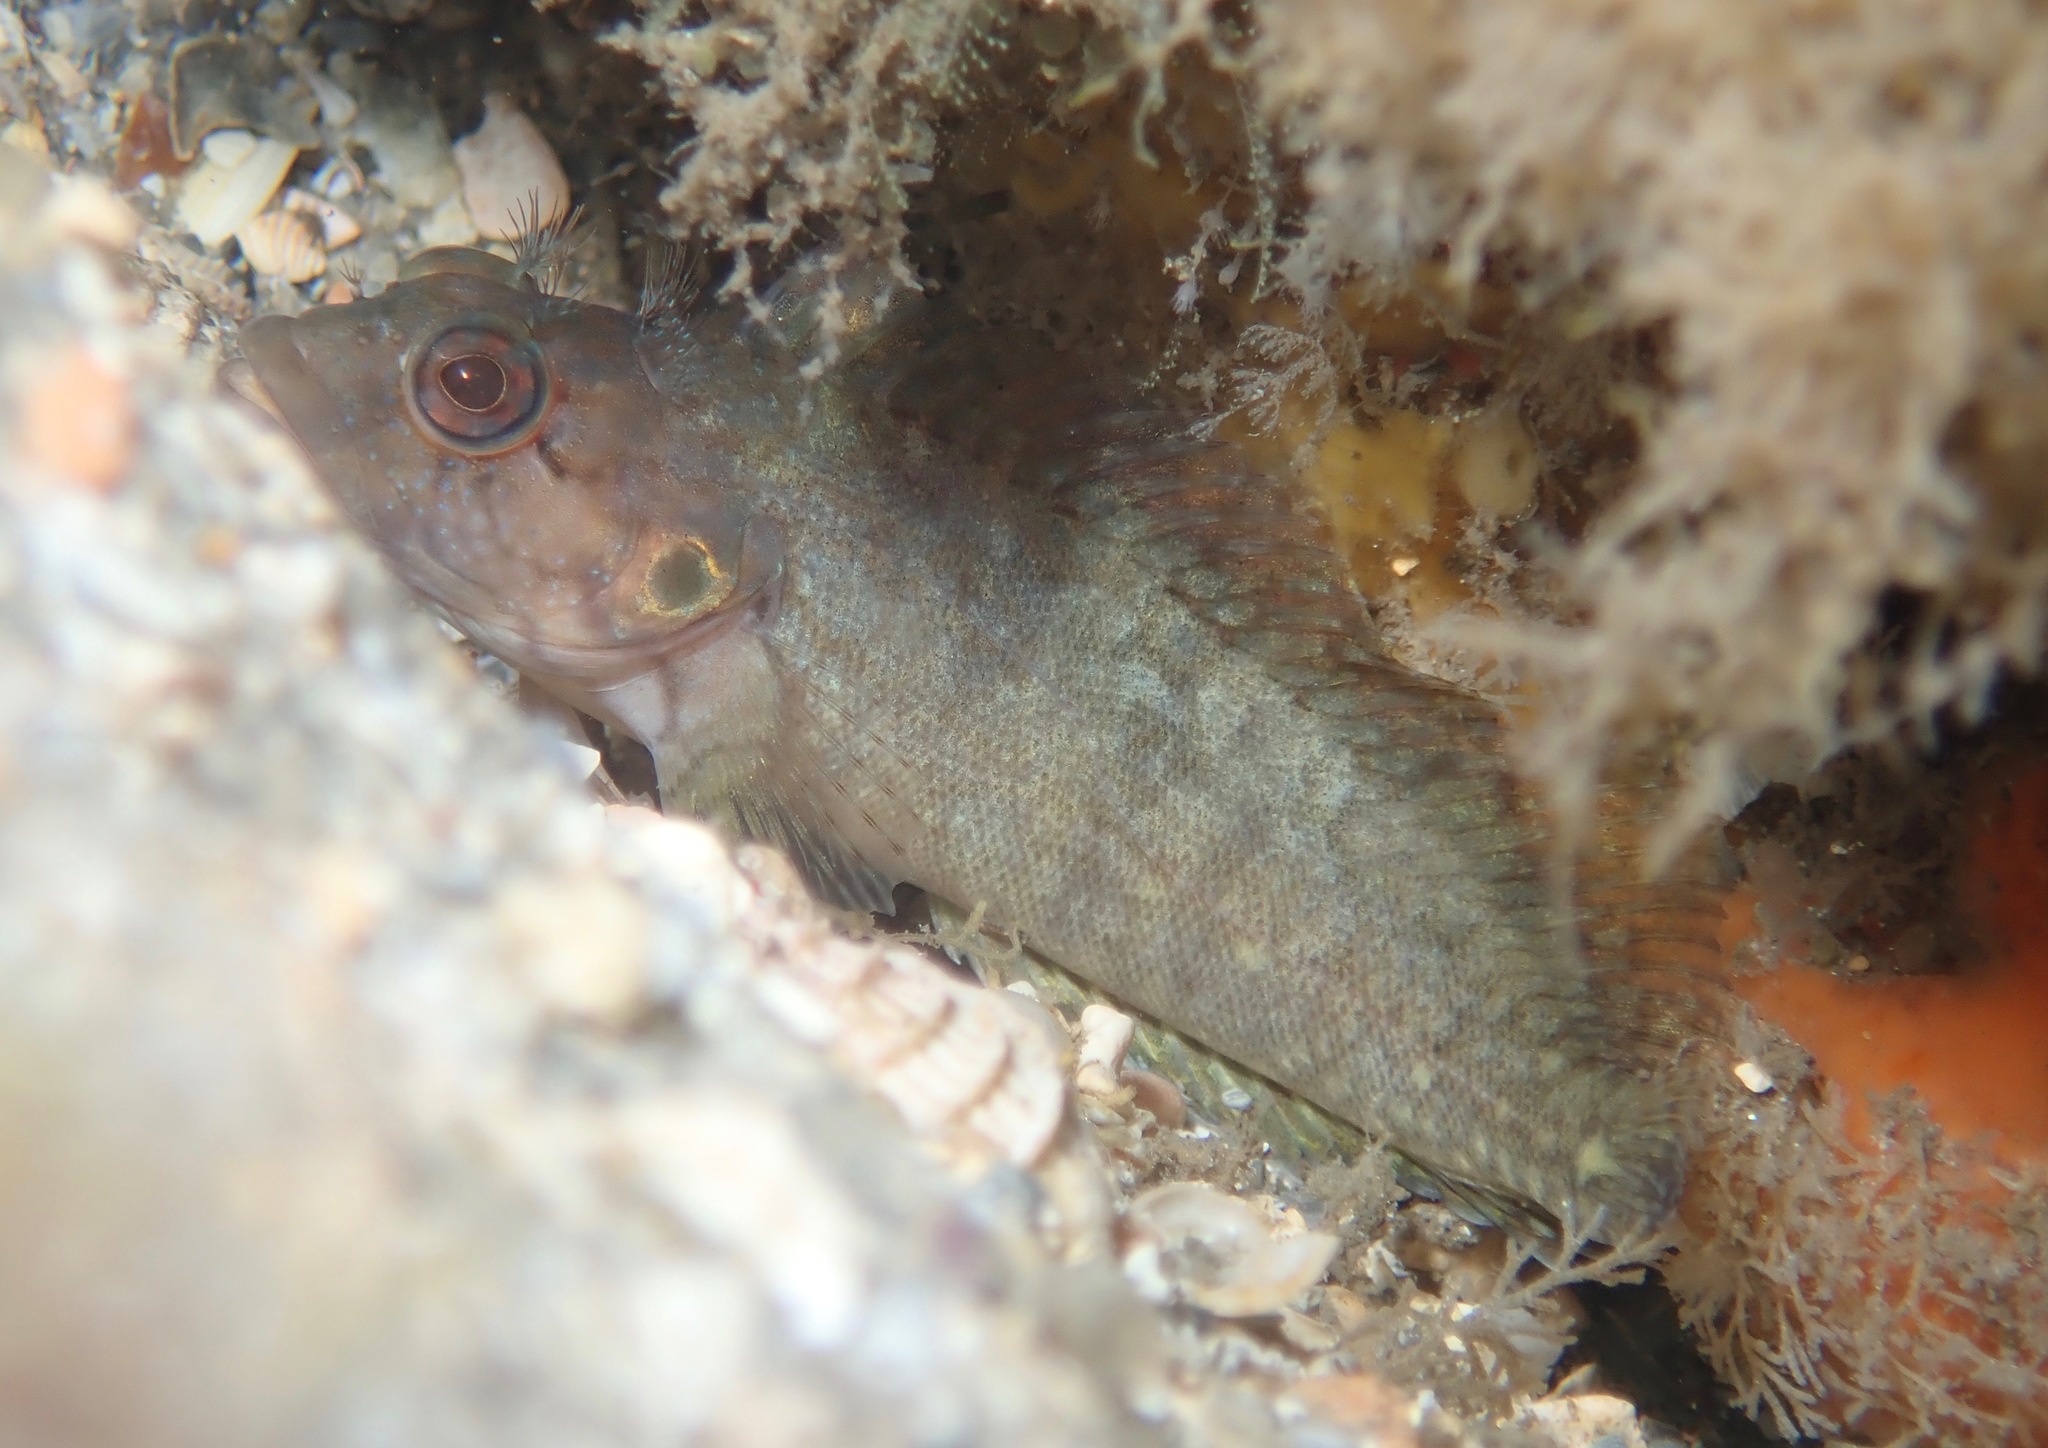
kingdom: Animalia
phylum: Chordata
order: Perciformes
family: Labrisomidae
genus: Labrisomus
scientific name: Labrisomus conditus
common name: Masquerader hairy blenny
